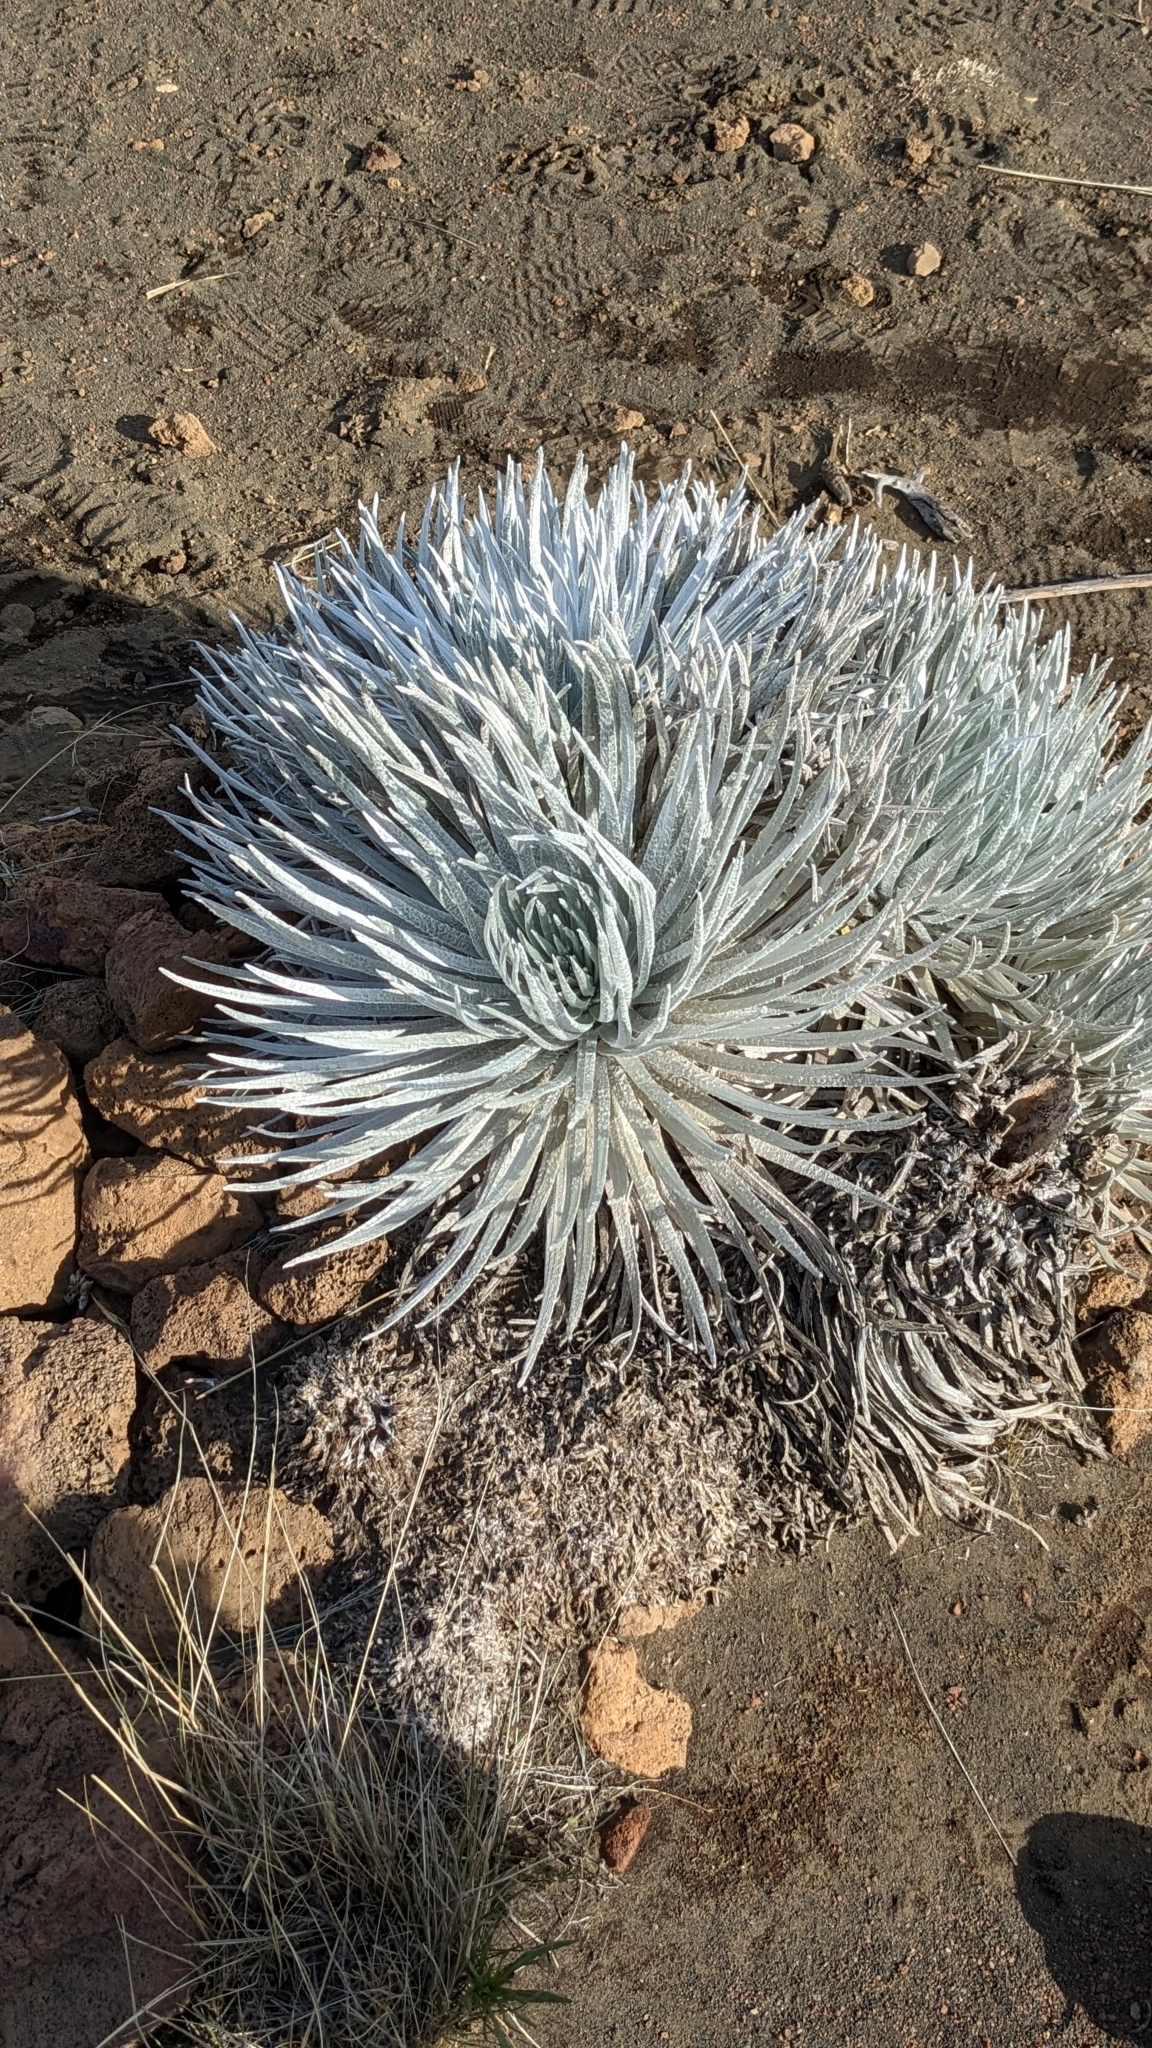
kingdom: Plantae
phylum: Tracheophyta
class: Magnoliopsida
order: Asterales
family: Asteraceae
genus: Argyroxiphium
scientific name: Argyroxiphium sandwicense
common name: Silversword
